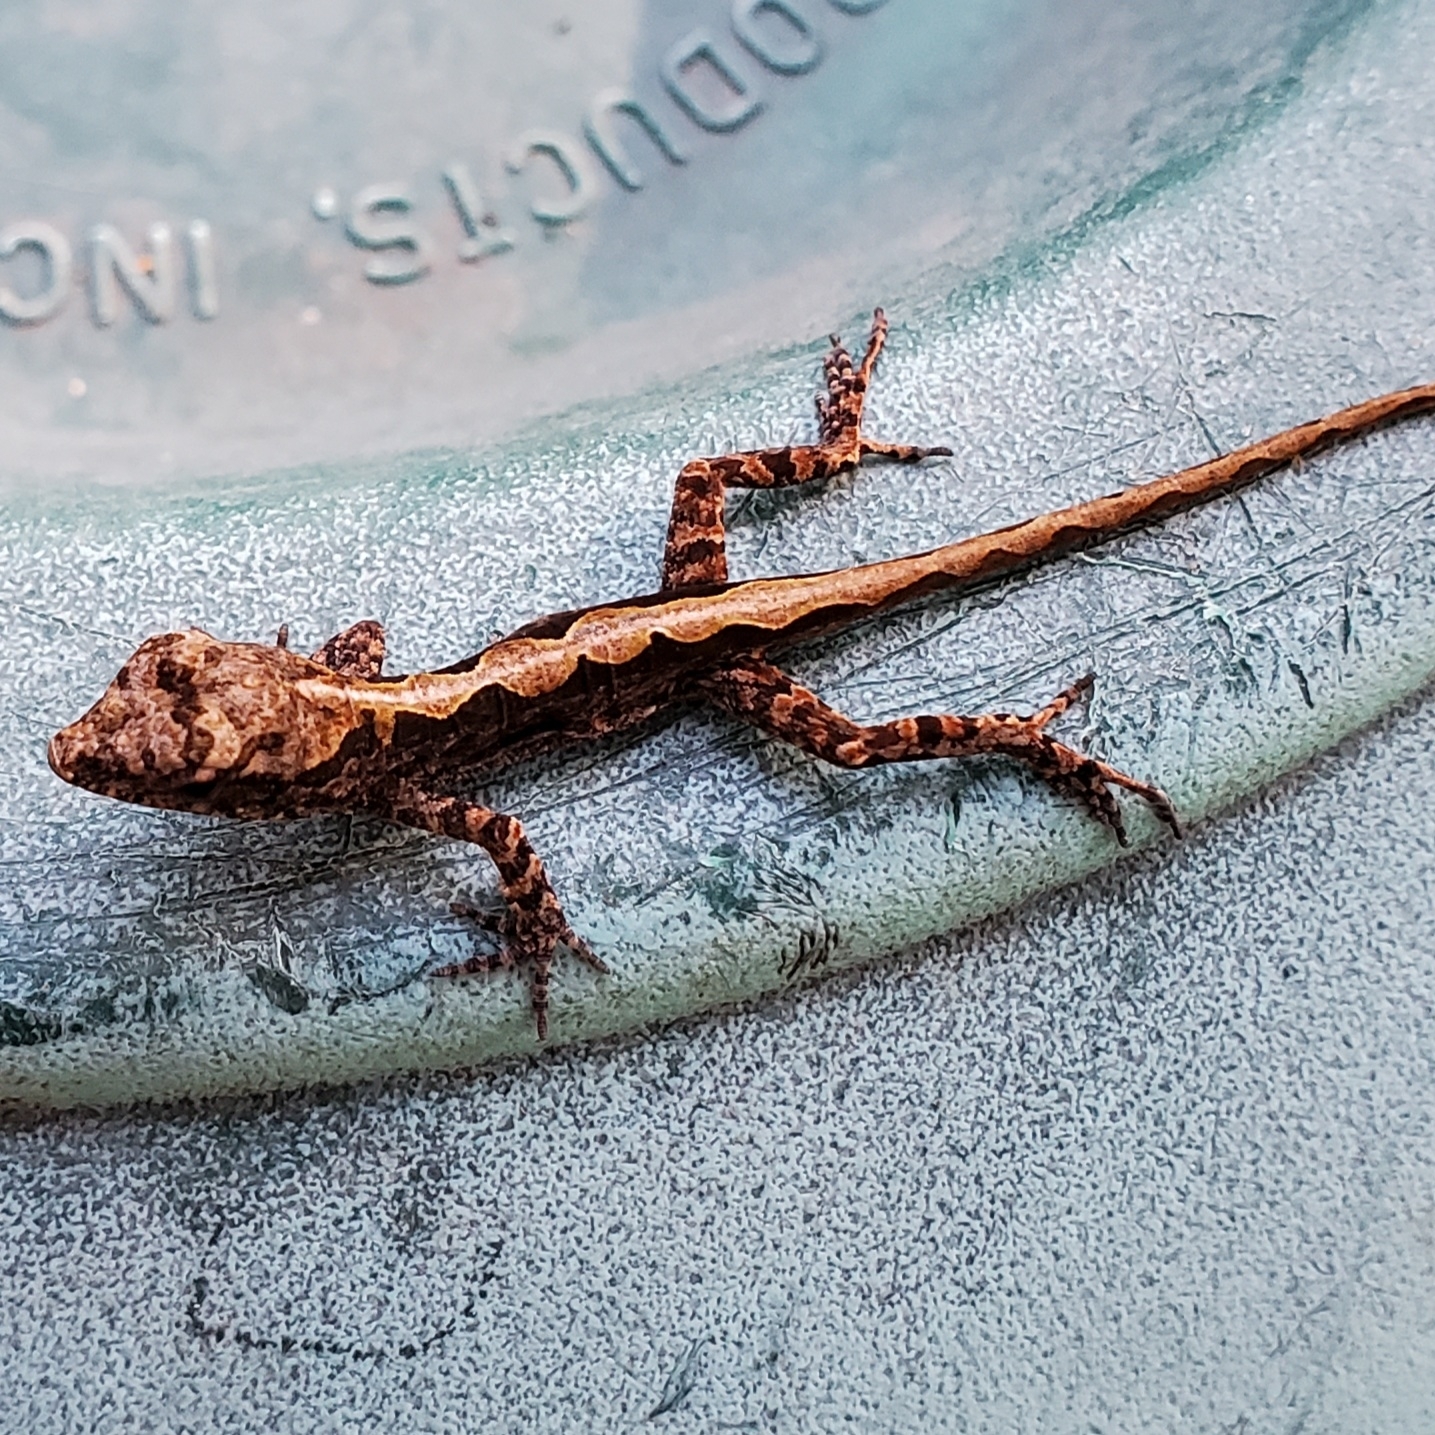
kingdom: Animalia
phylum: Chordata
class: Squamata
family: Dactyloidae
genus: Anolis
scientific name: Anolis sagrei
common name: Brown anole
